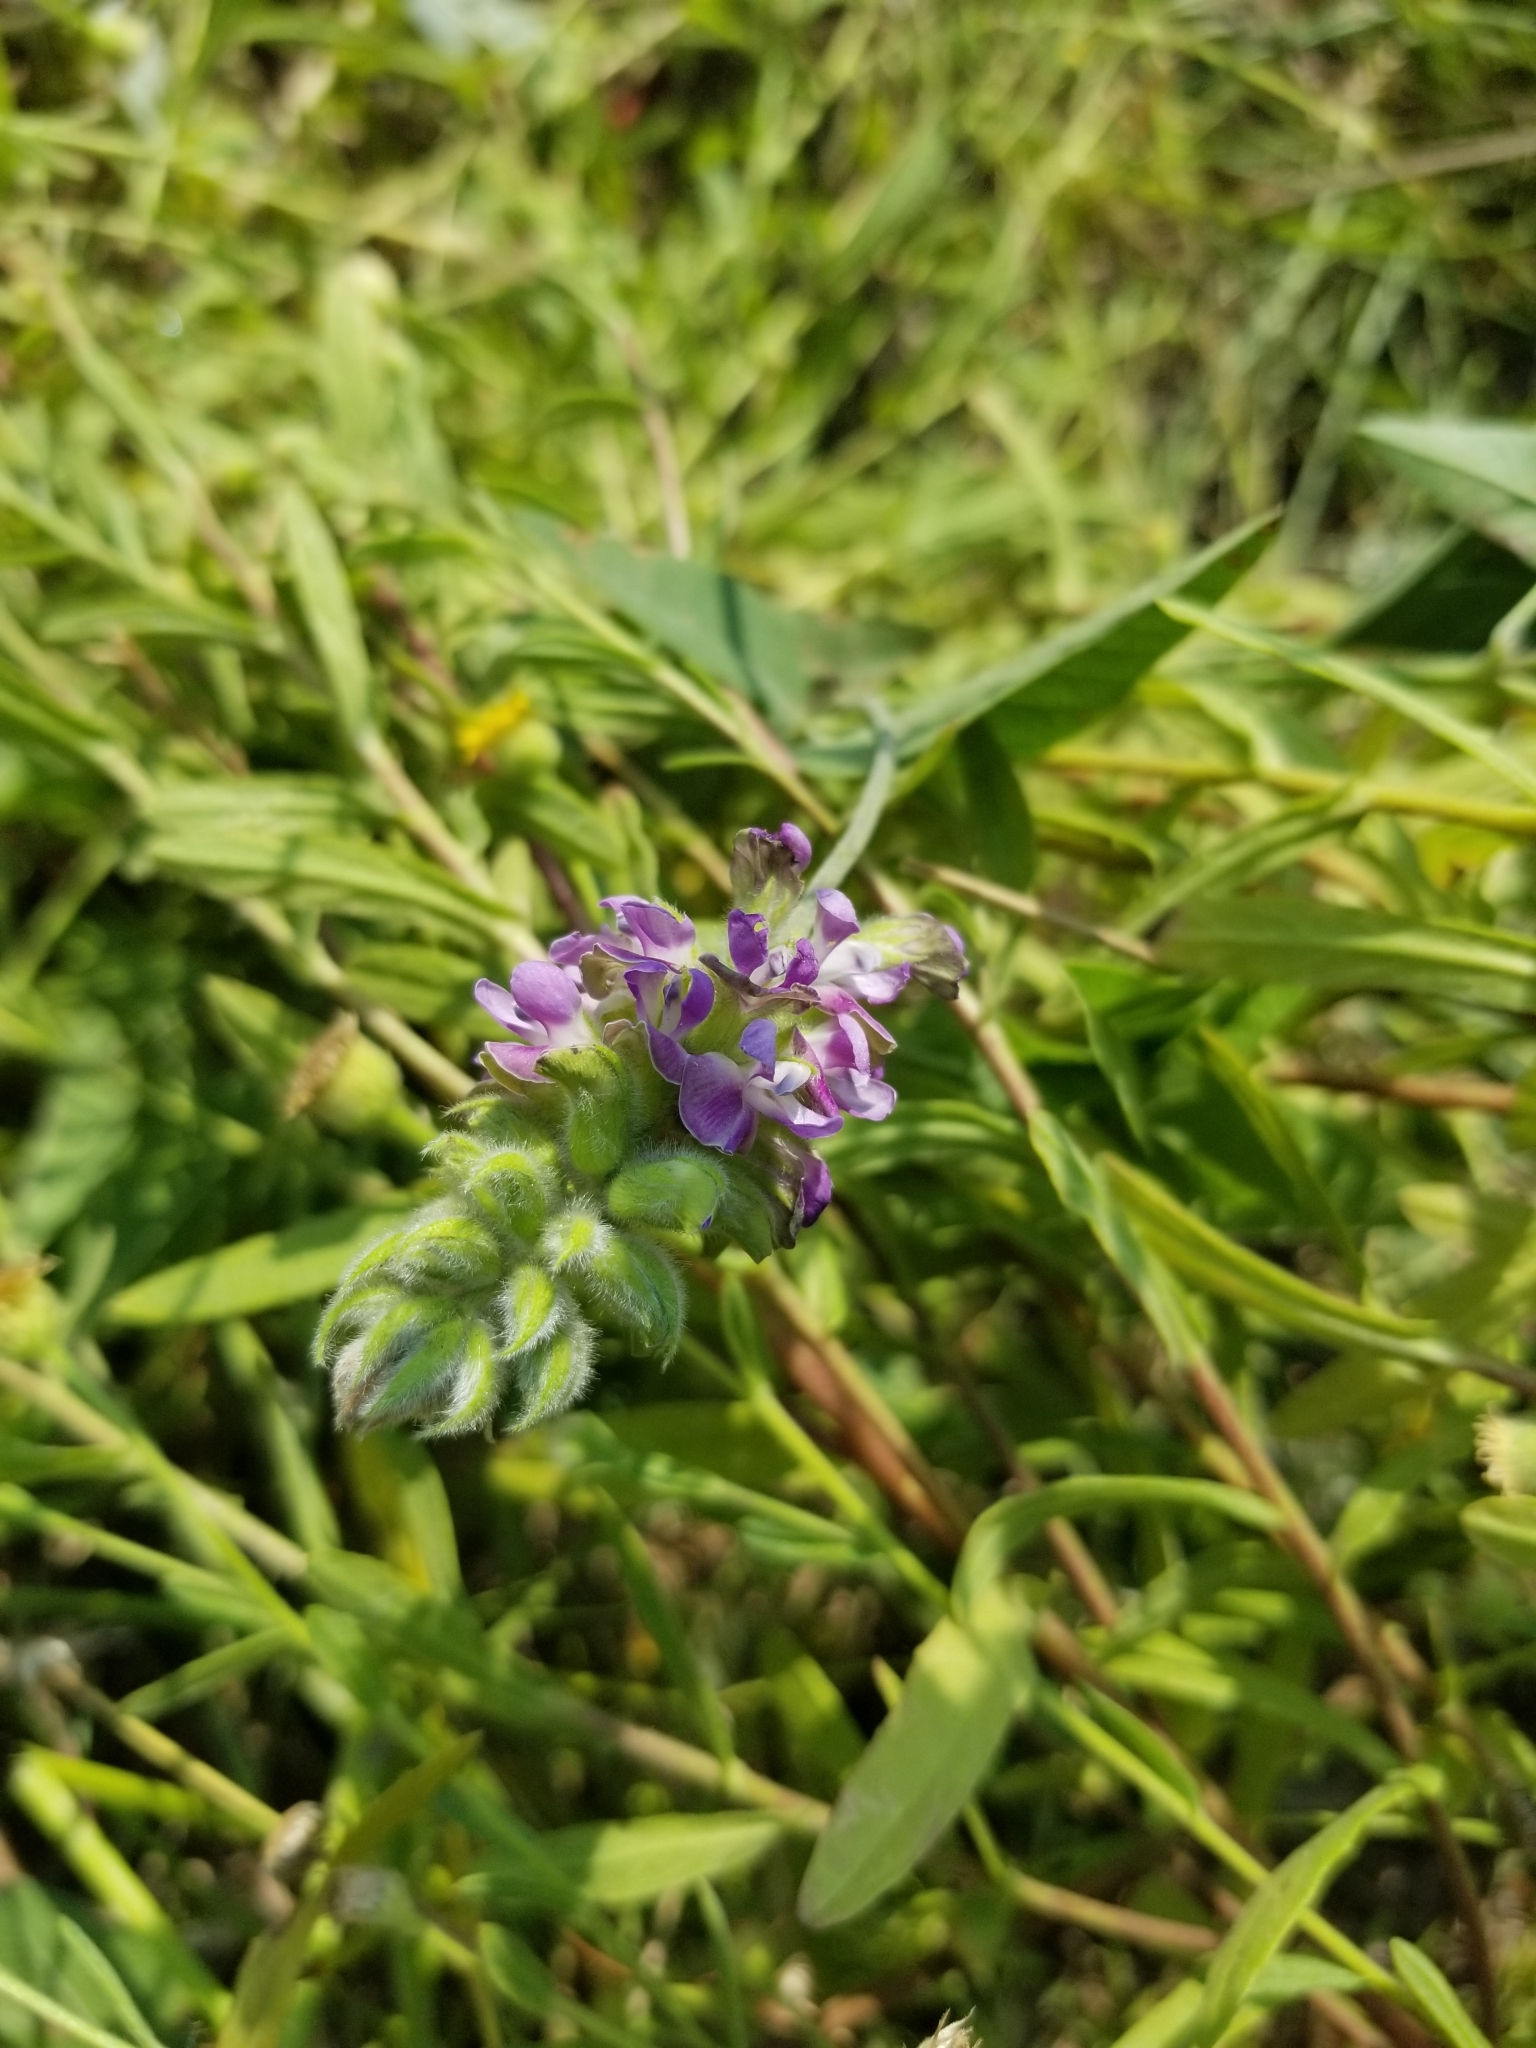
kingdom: Plantae
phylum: Tracheophyta
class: Magnoliopsida
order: Fabales
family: Fabaceae
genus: Hoita
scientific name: Hoita macrostachya
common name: Leatherroot
